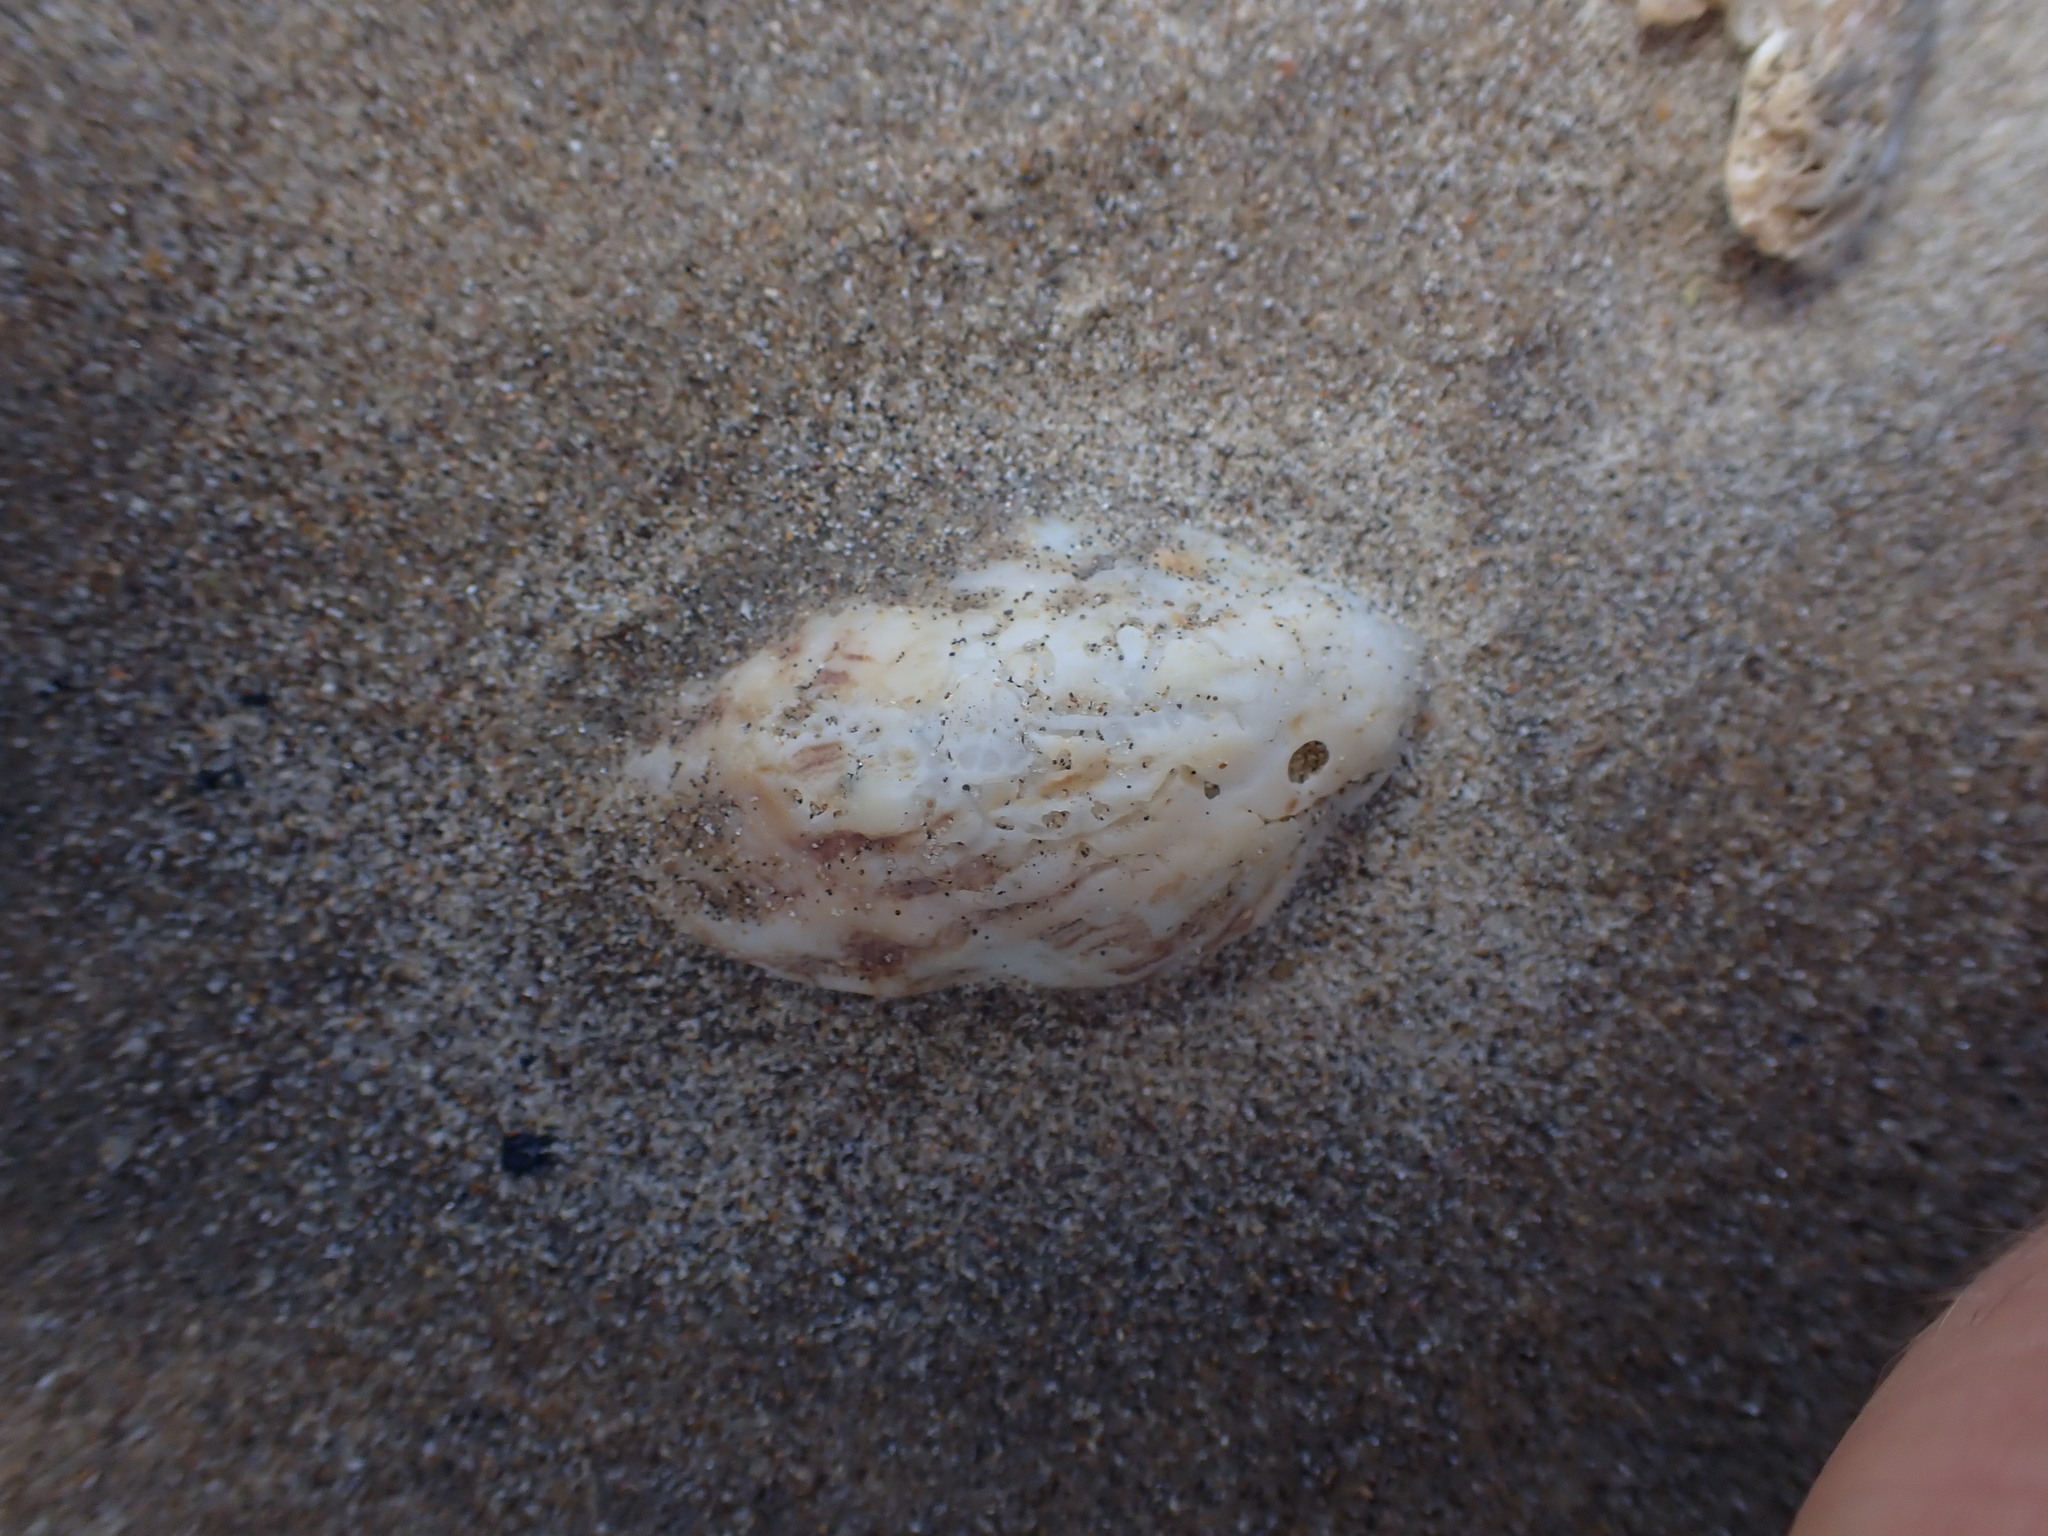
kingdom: Animalia
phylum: Mollusca
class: Gastropoda
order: Littorinimorpha
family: Calyptraeidae
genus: Maoricrypta
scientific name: Maoricrypta costata
